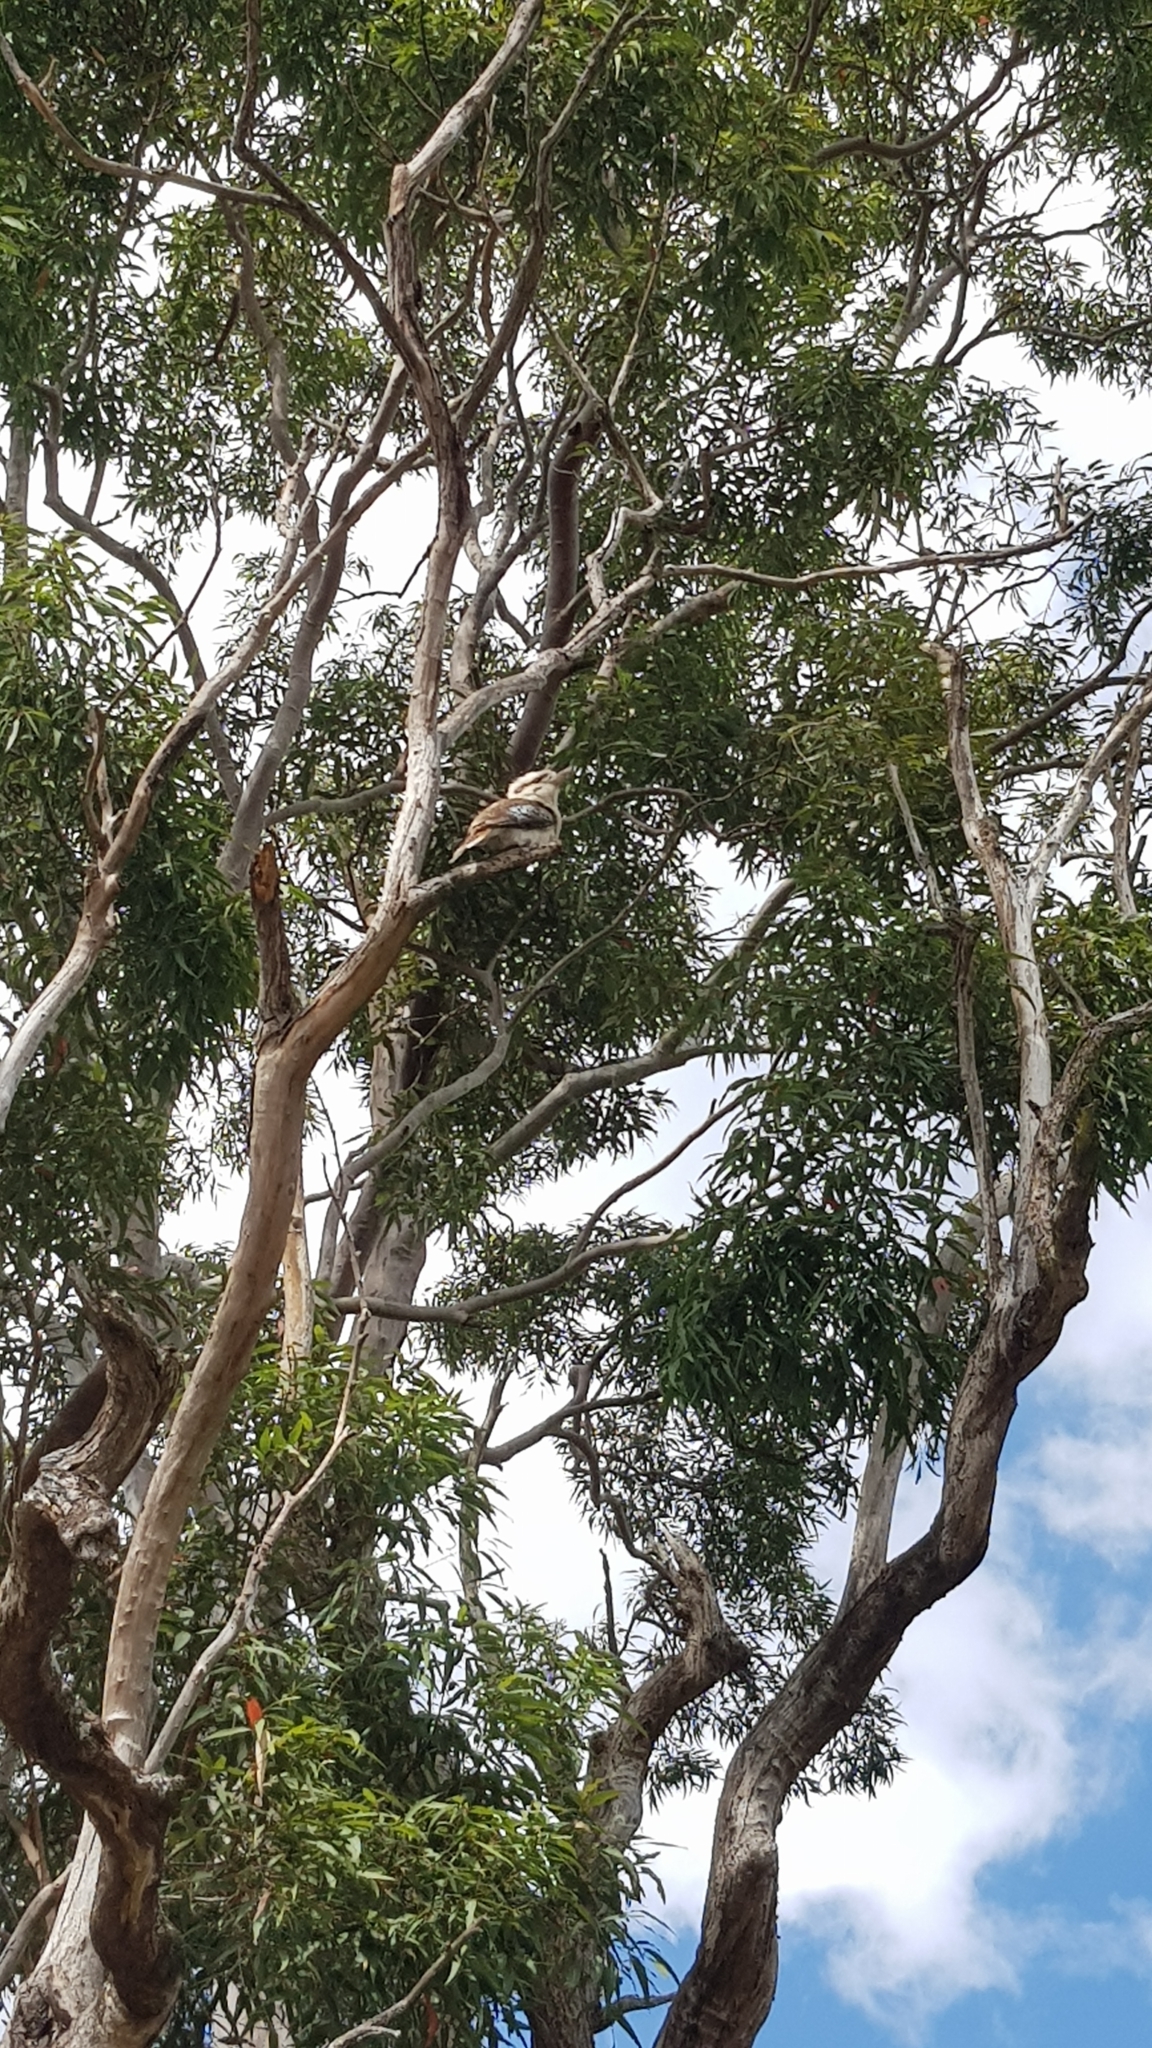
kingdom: Animalia
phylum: Chordata
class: Aves
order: Coraciiformes
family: Alcedinidae
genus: Dacelo
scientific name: Dacelo novaeguineae
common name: Laughing kookaburra
